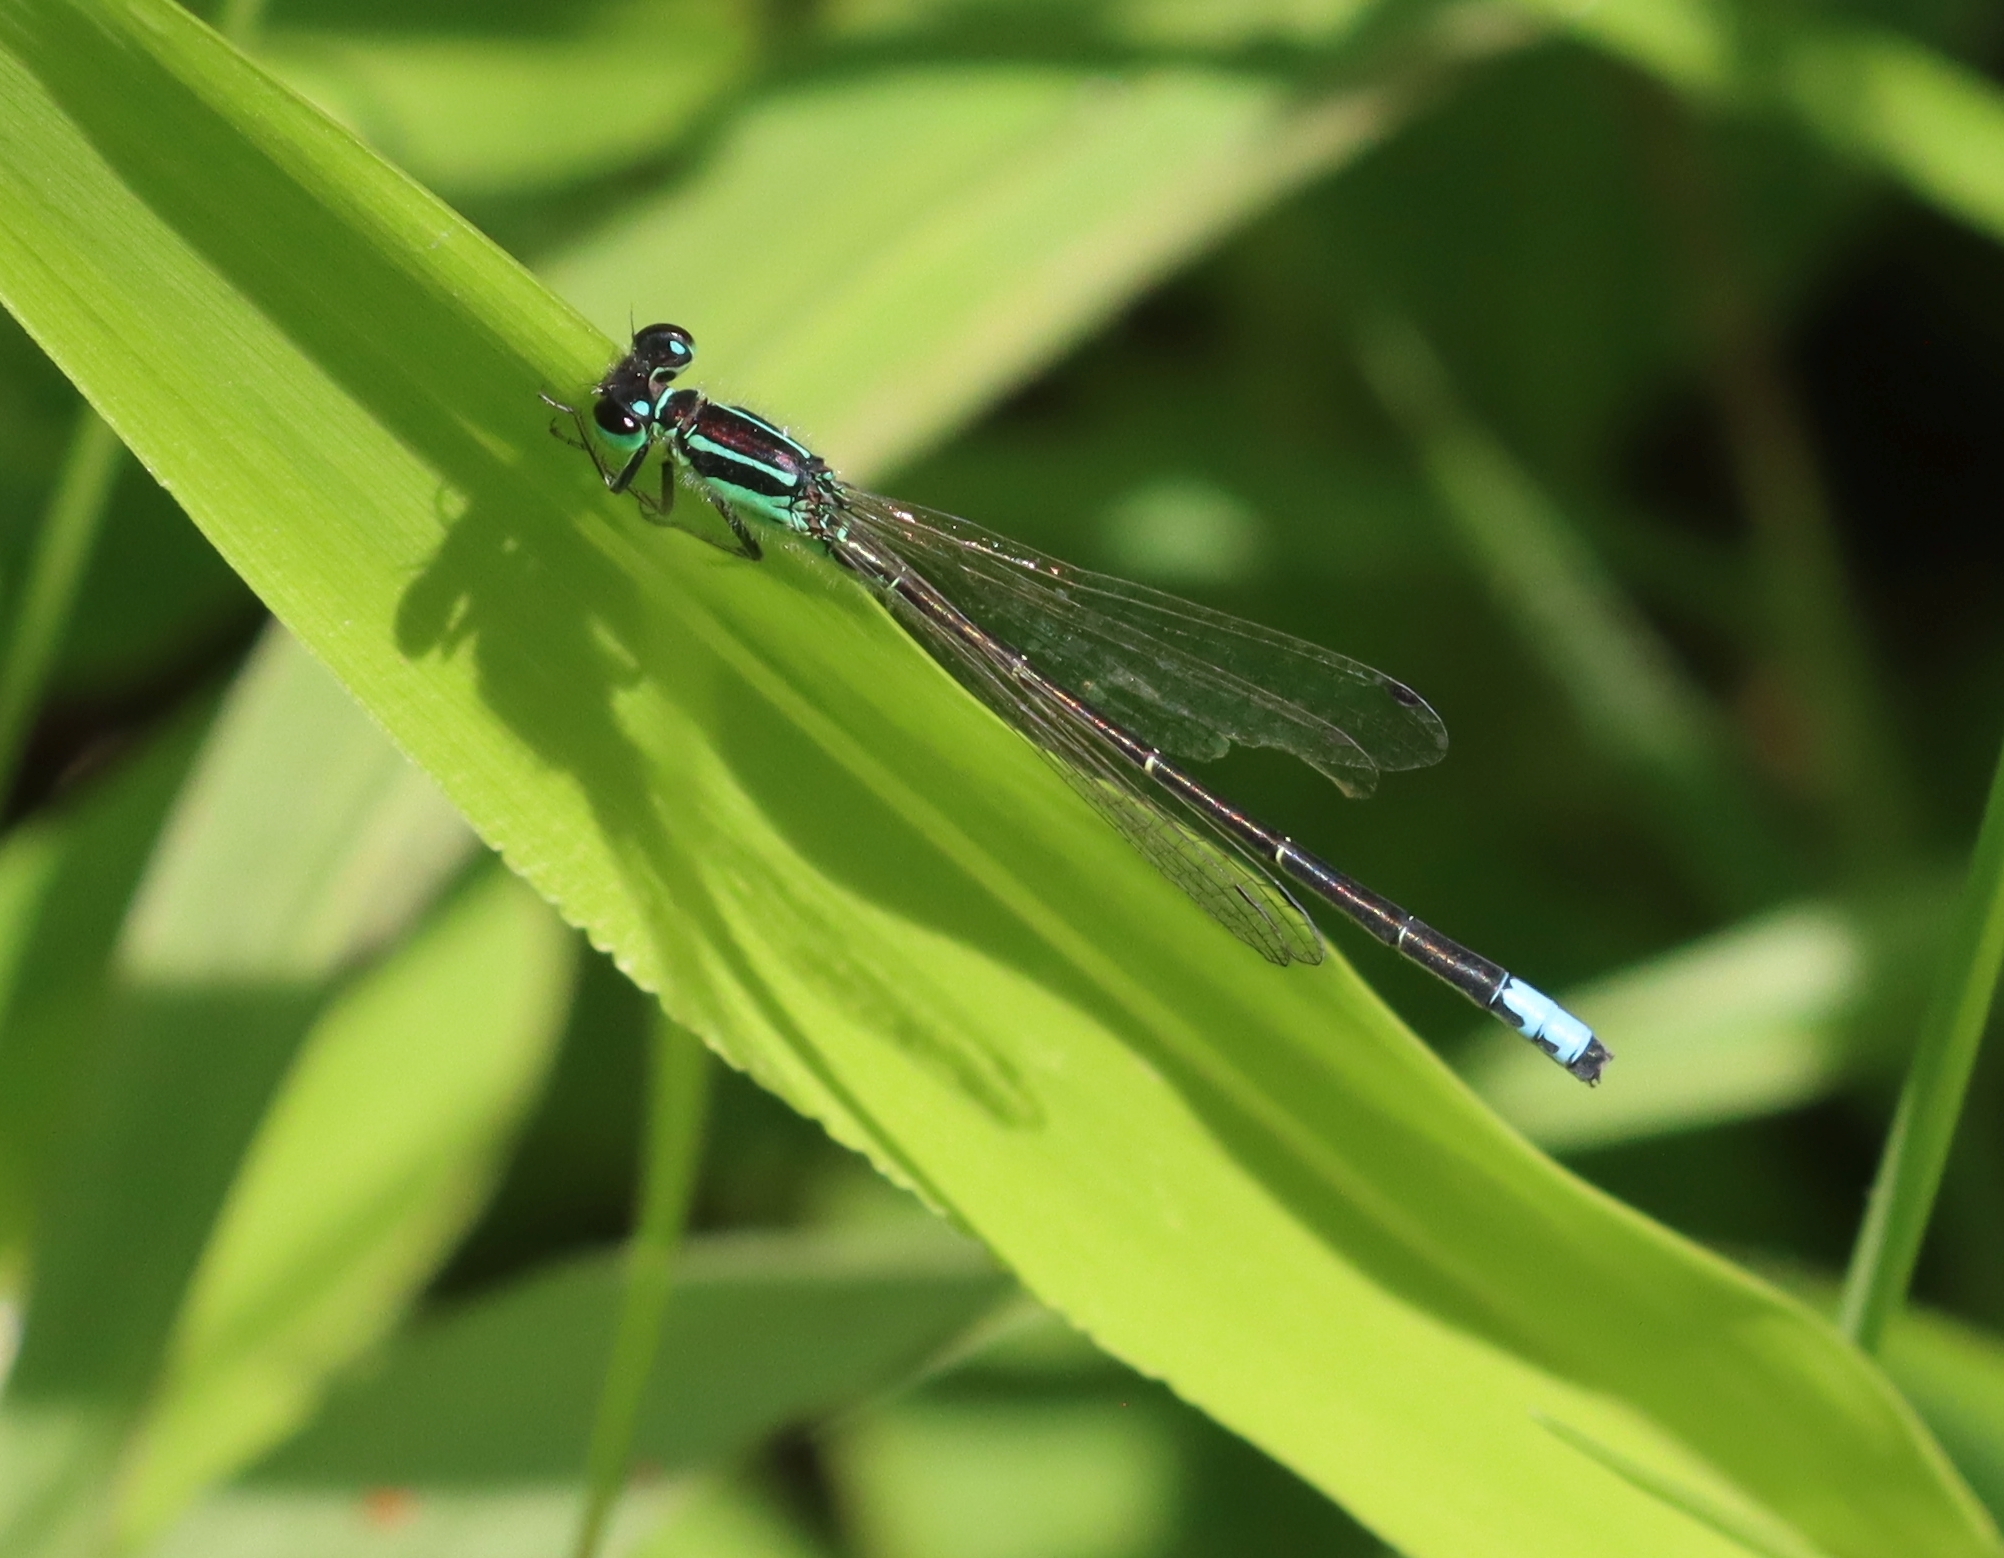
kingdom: Animalia
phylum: Arthropoda
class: Insecta
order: Odonata
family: Coenagrionidae
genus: Ischnura
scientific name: Ischnura verticalis
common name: Eastern forktail
